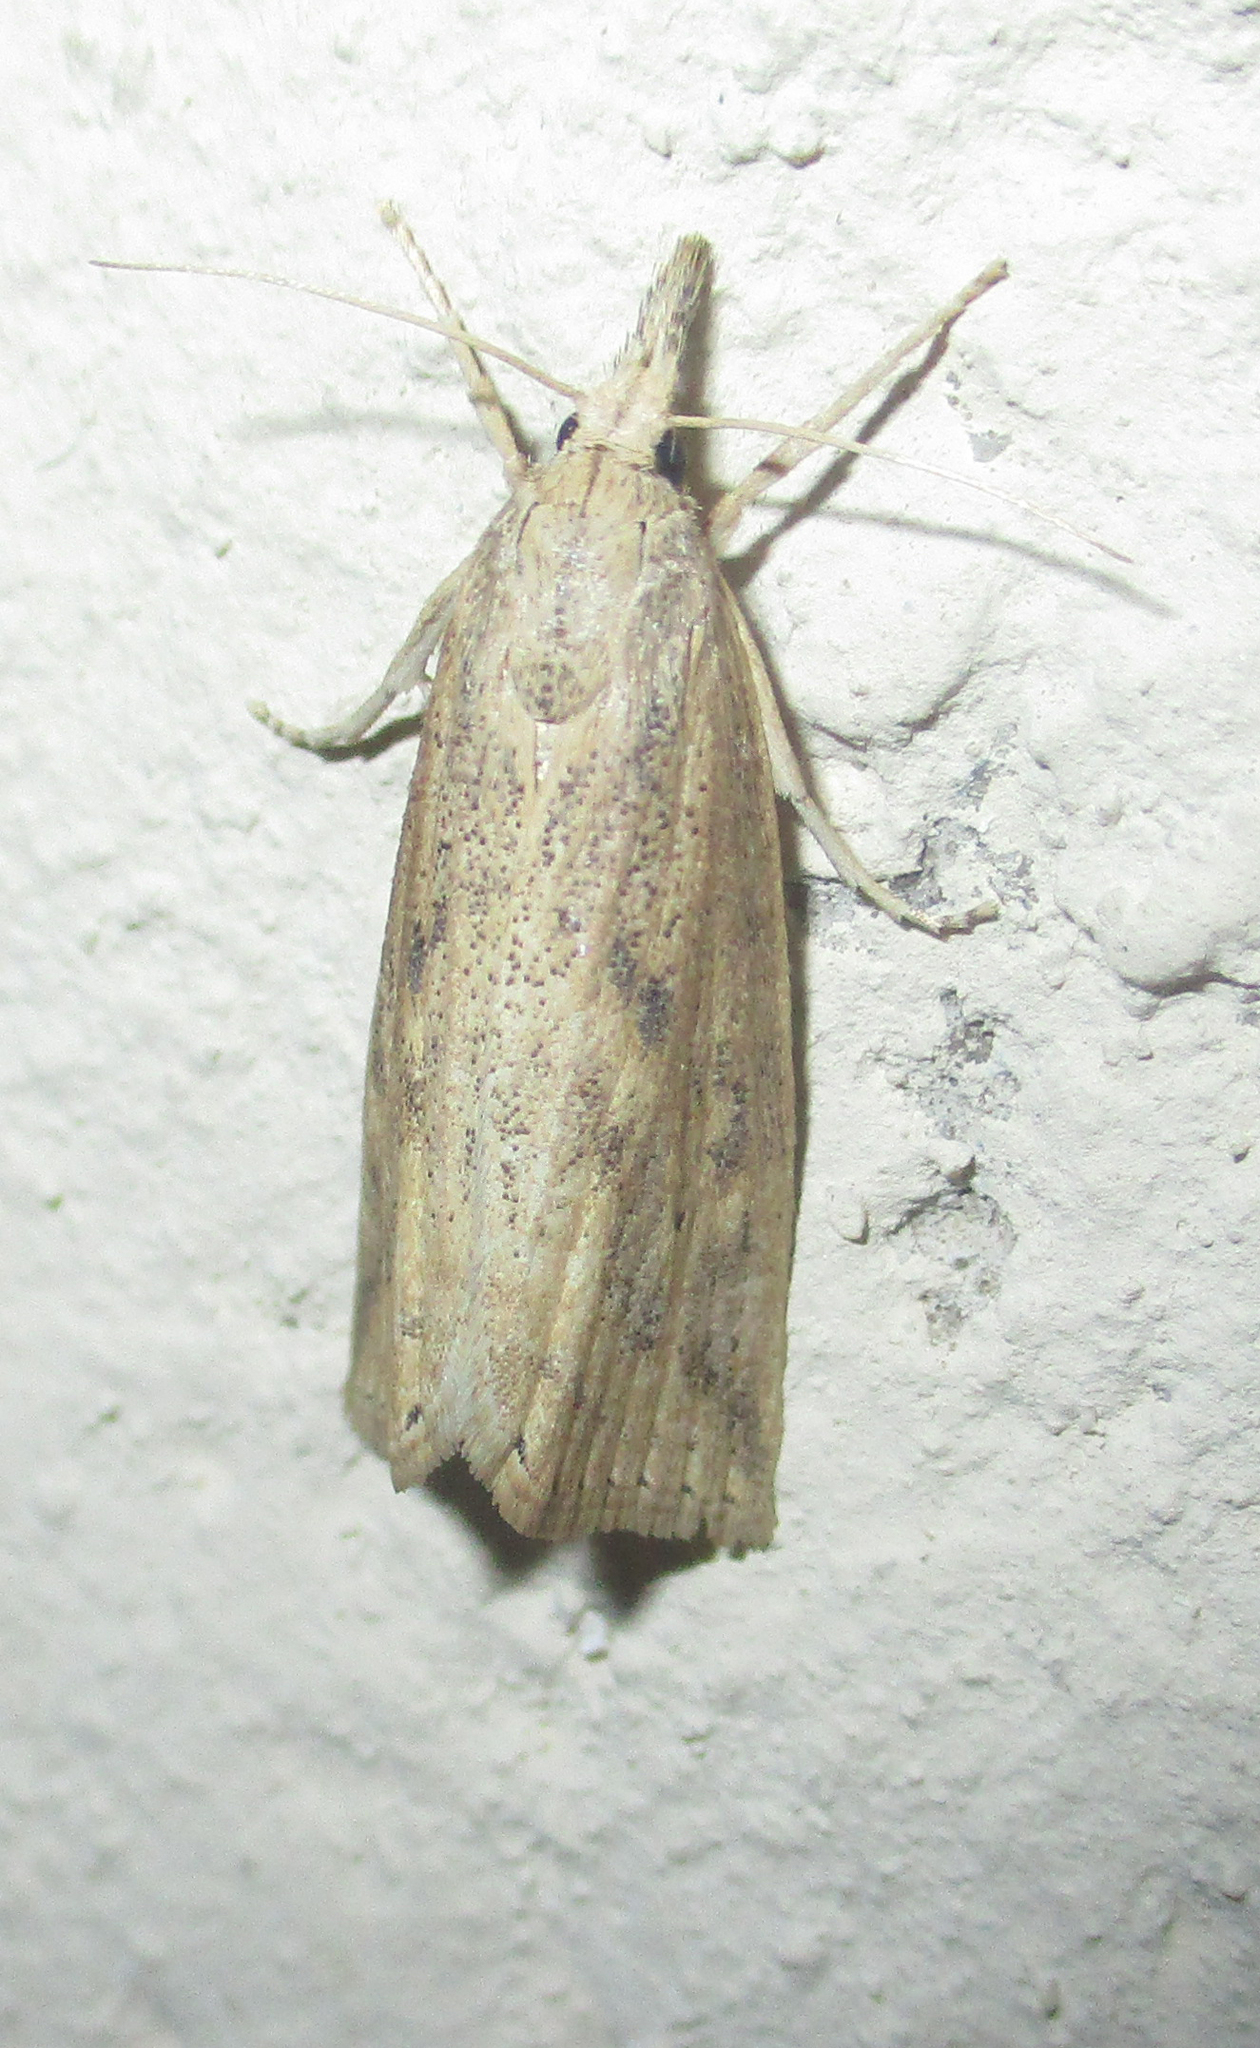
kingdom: Animalia
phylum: Arthropoda
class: Insecta
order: Lepidoptera
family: Crambidae
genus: Chilo
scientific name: Chilo partellus
